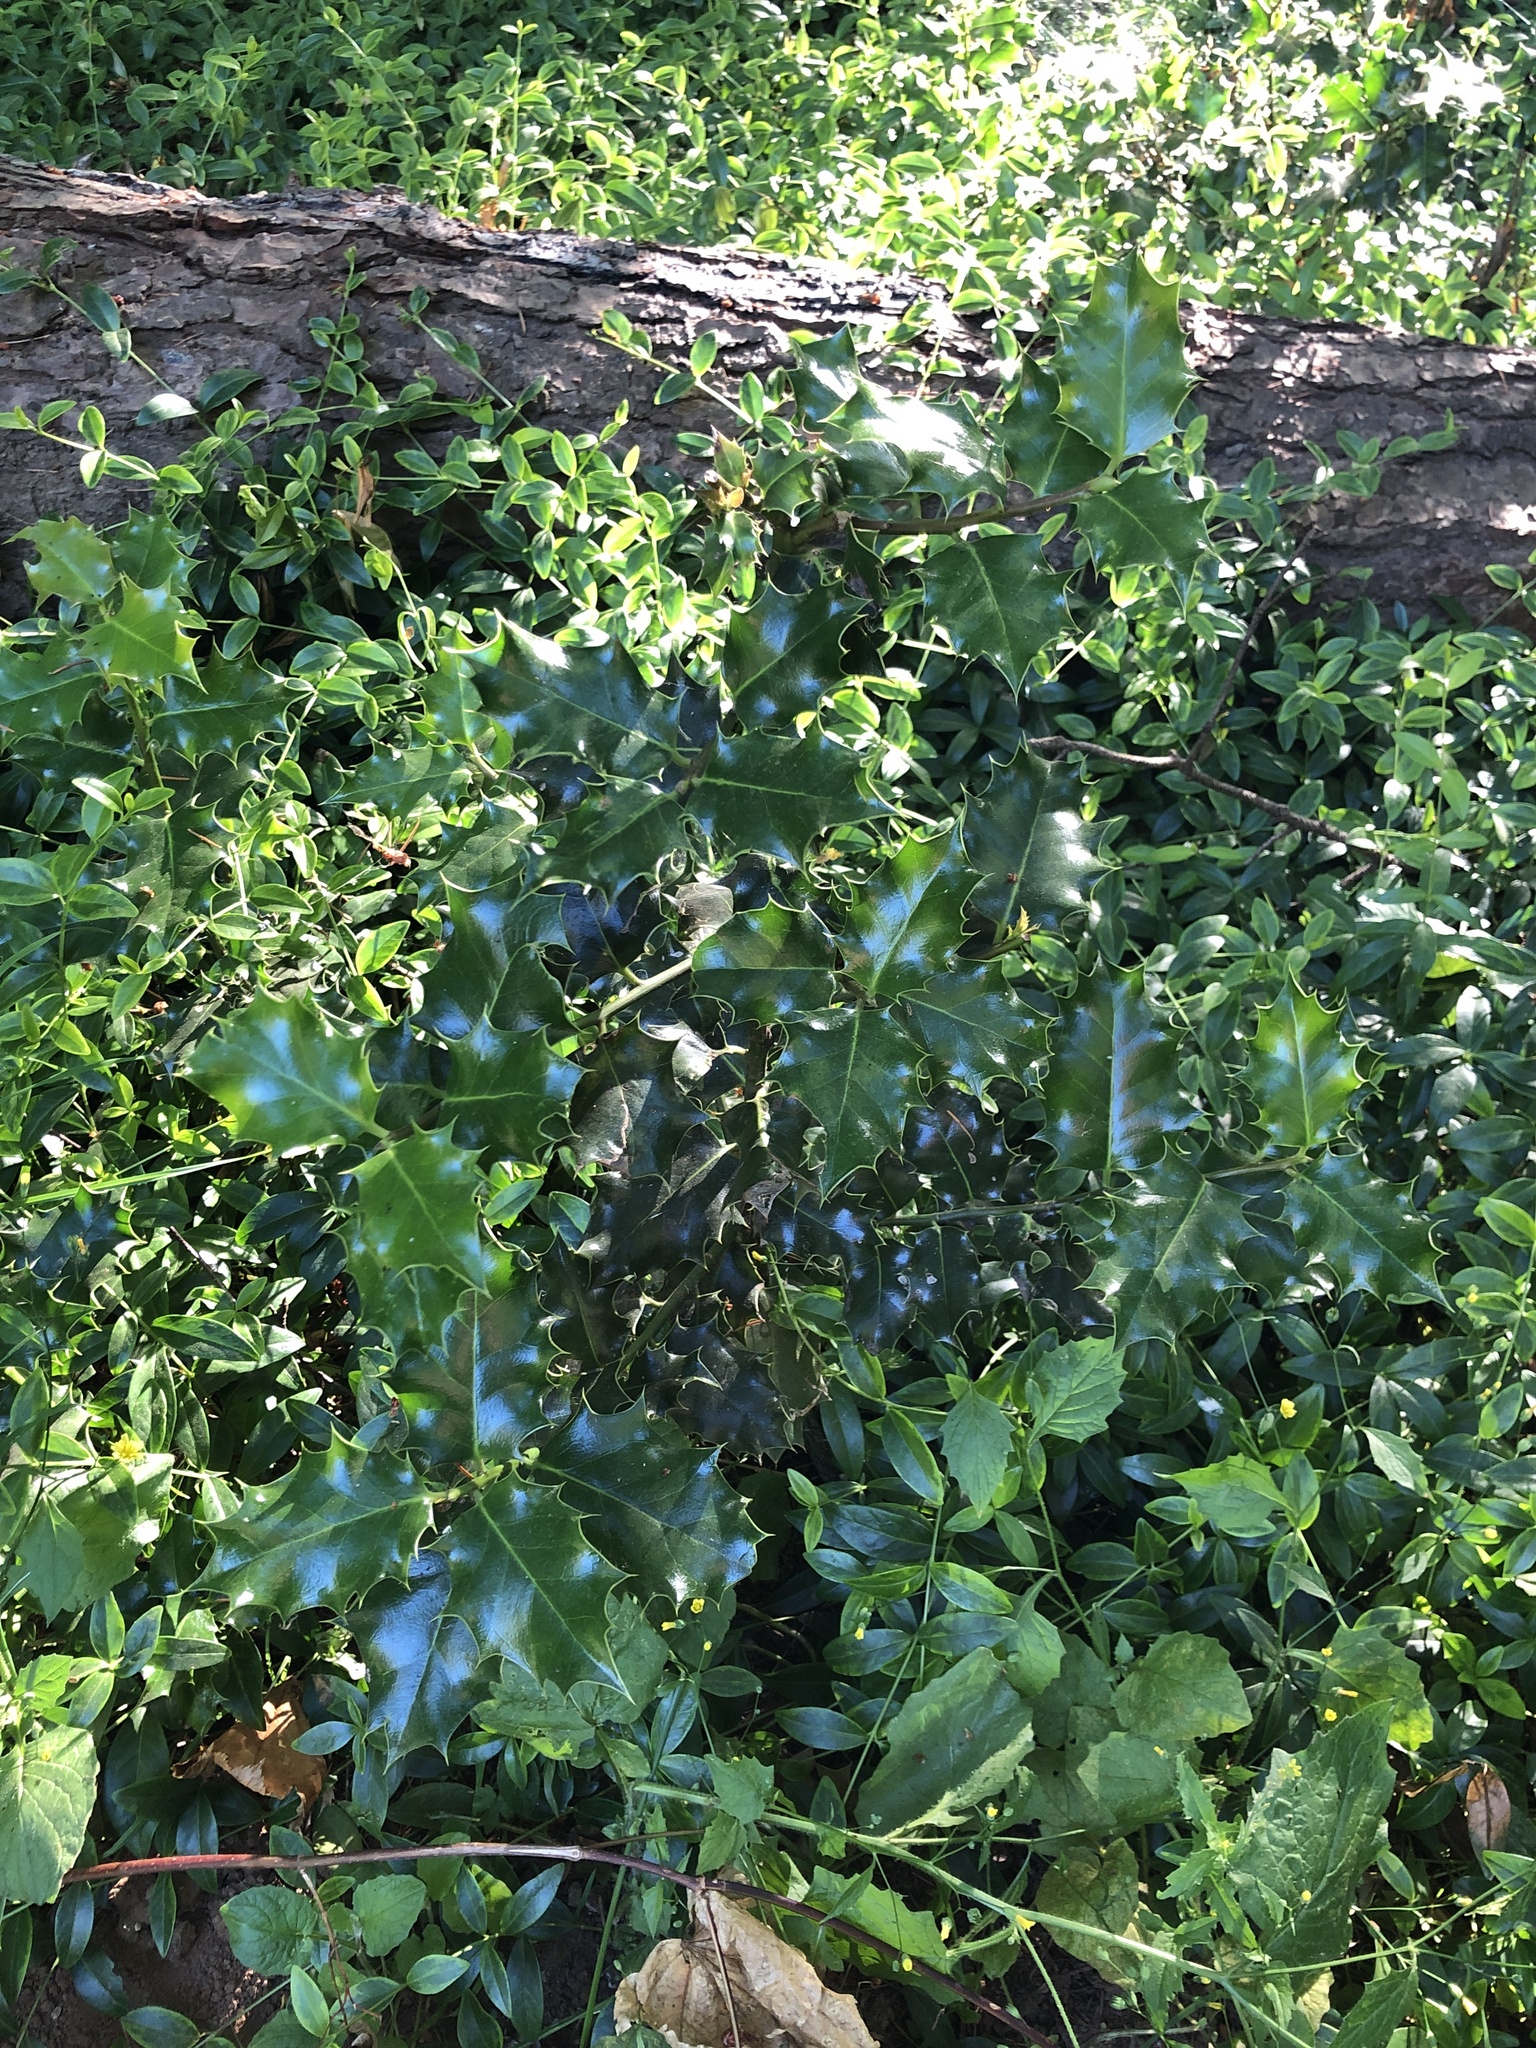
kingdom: Plantae
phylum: Tracheophyta
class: Magnoliopsida
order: Aquifoliales
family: Aquifoliaceae
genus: Ilex
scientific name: Ilex aquifolium
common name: English holly
